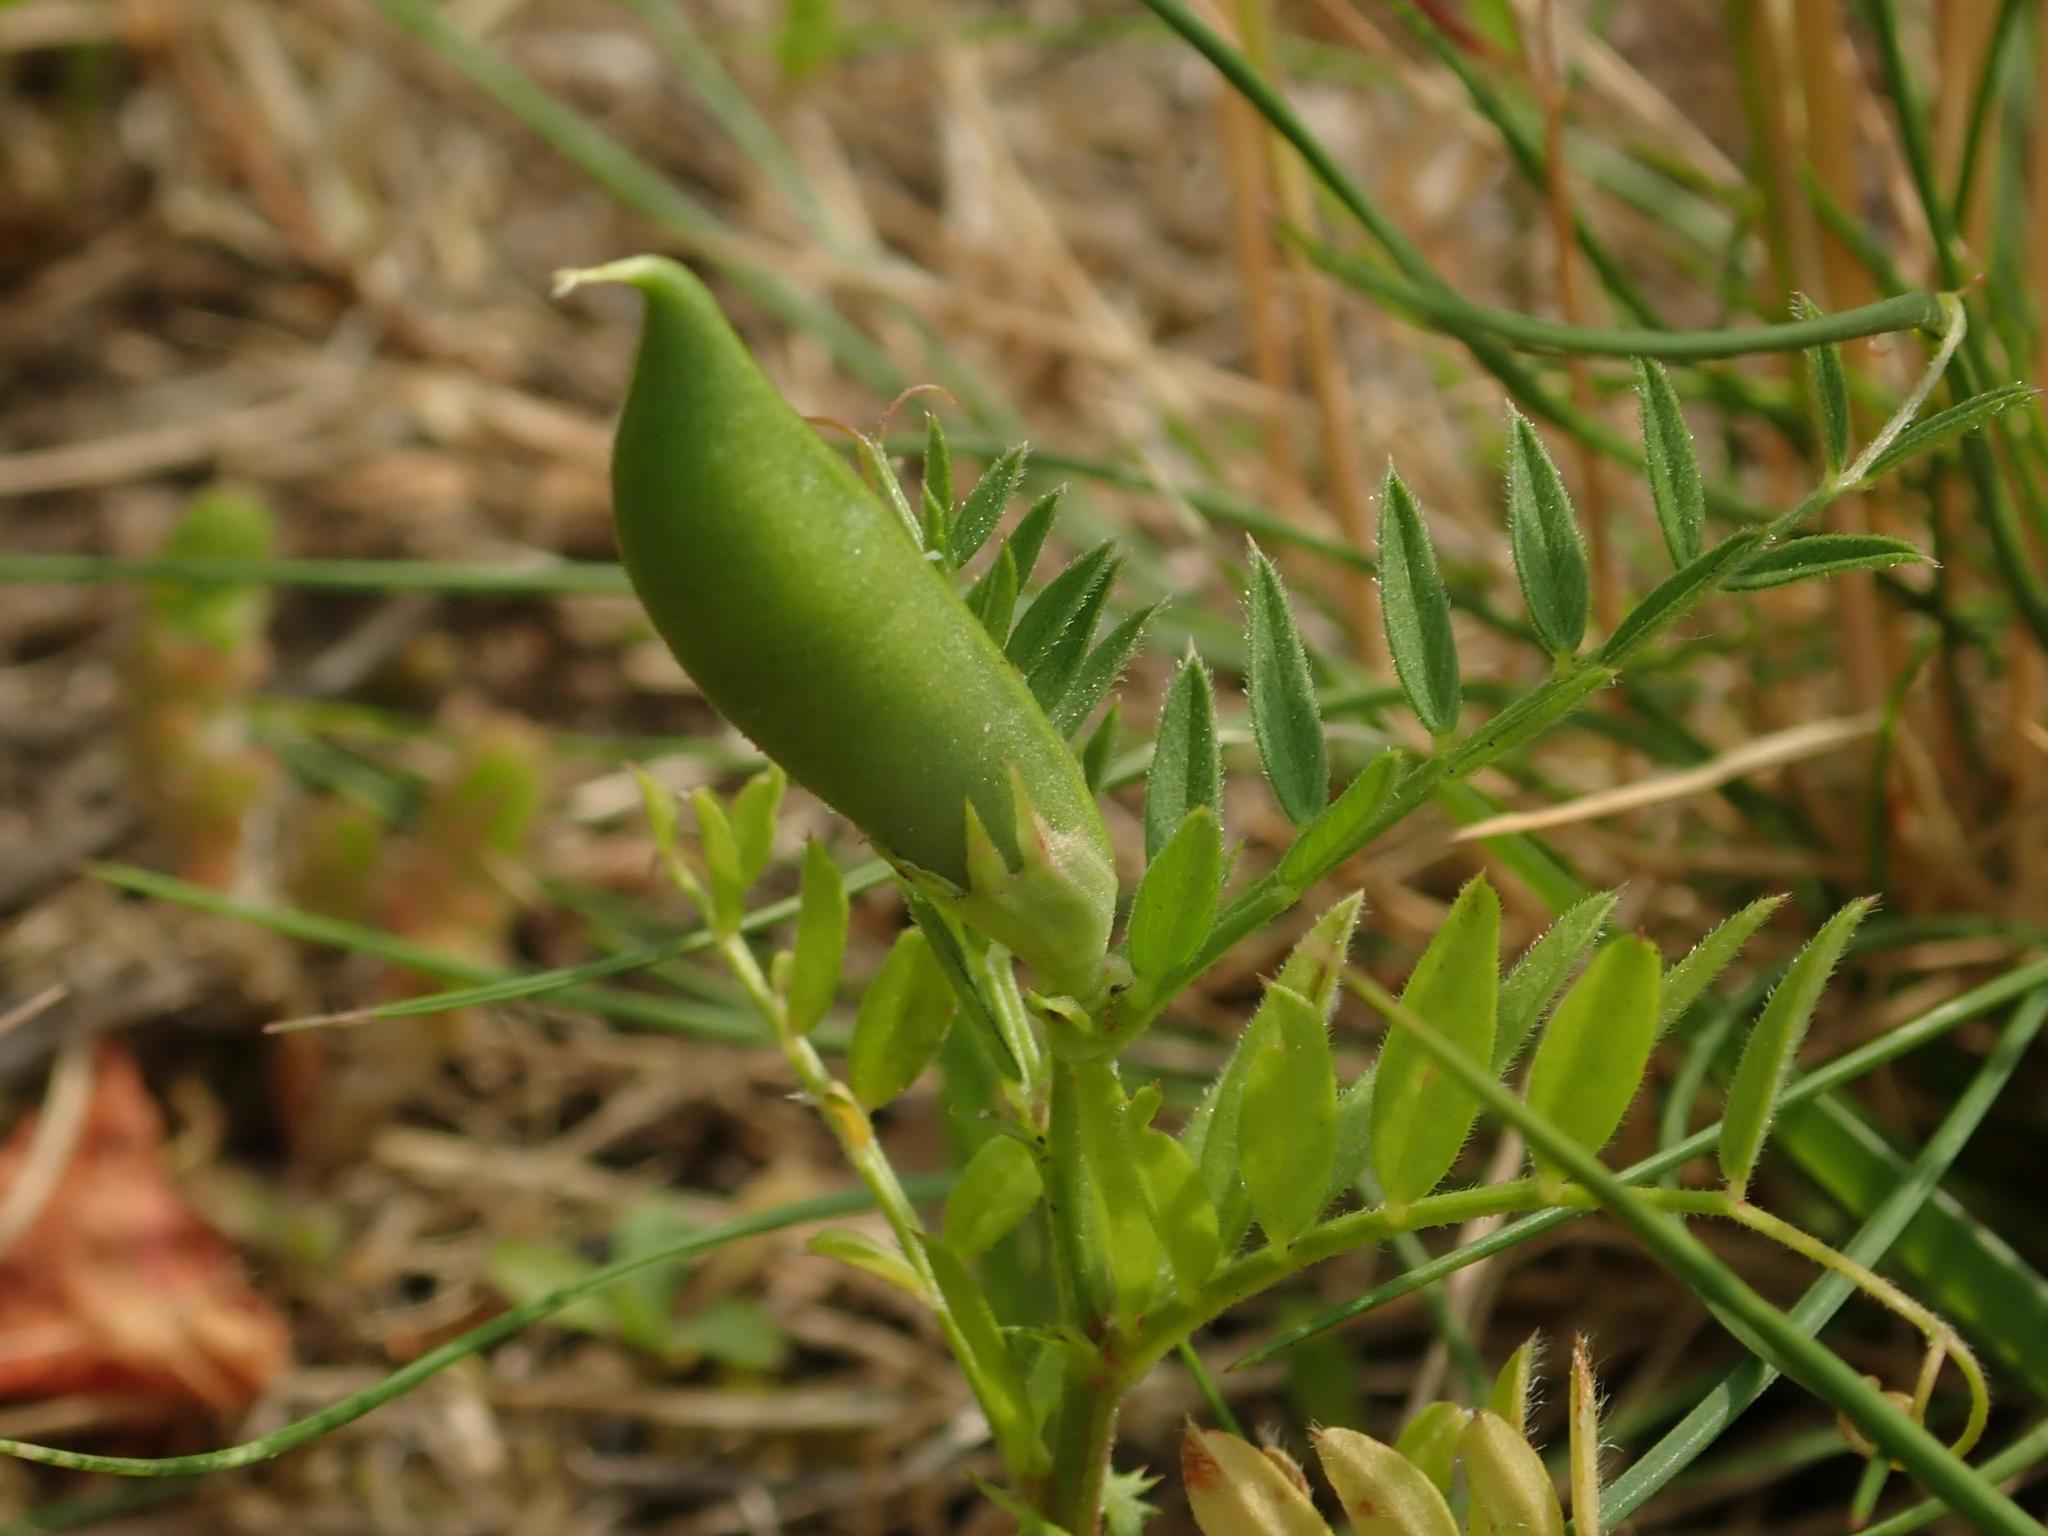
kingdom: Plantae
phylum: Tracheophyta
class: Magnoliopsida
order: Fabales
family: Fabaceae
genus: Vicia
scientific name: Vicia sativa
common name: Garden vetch
